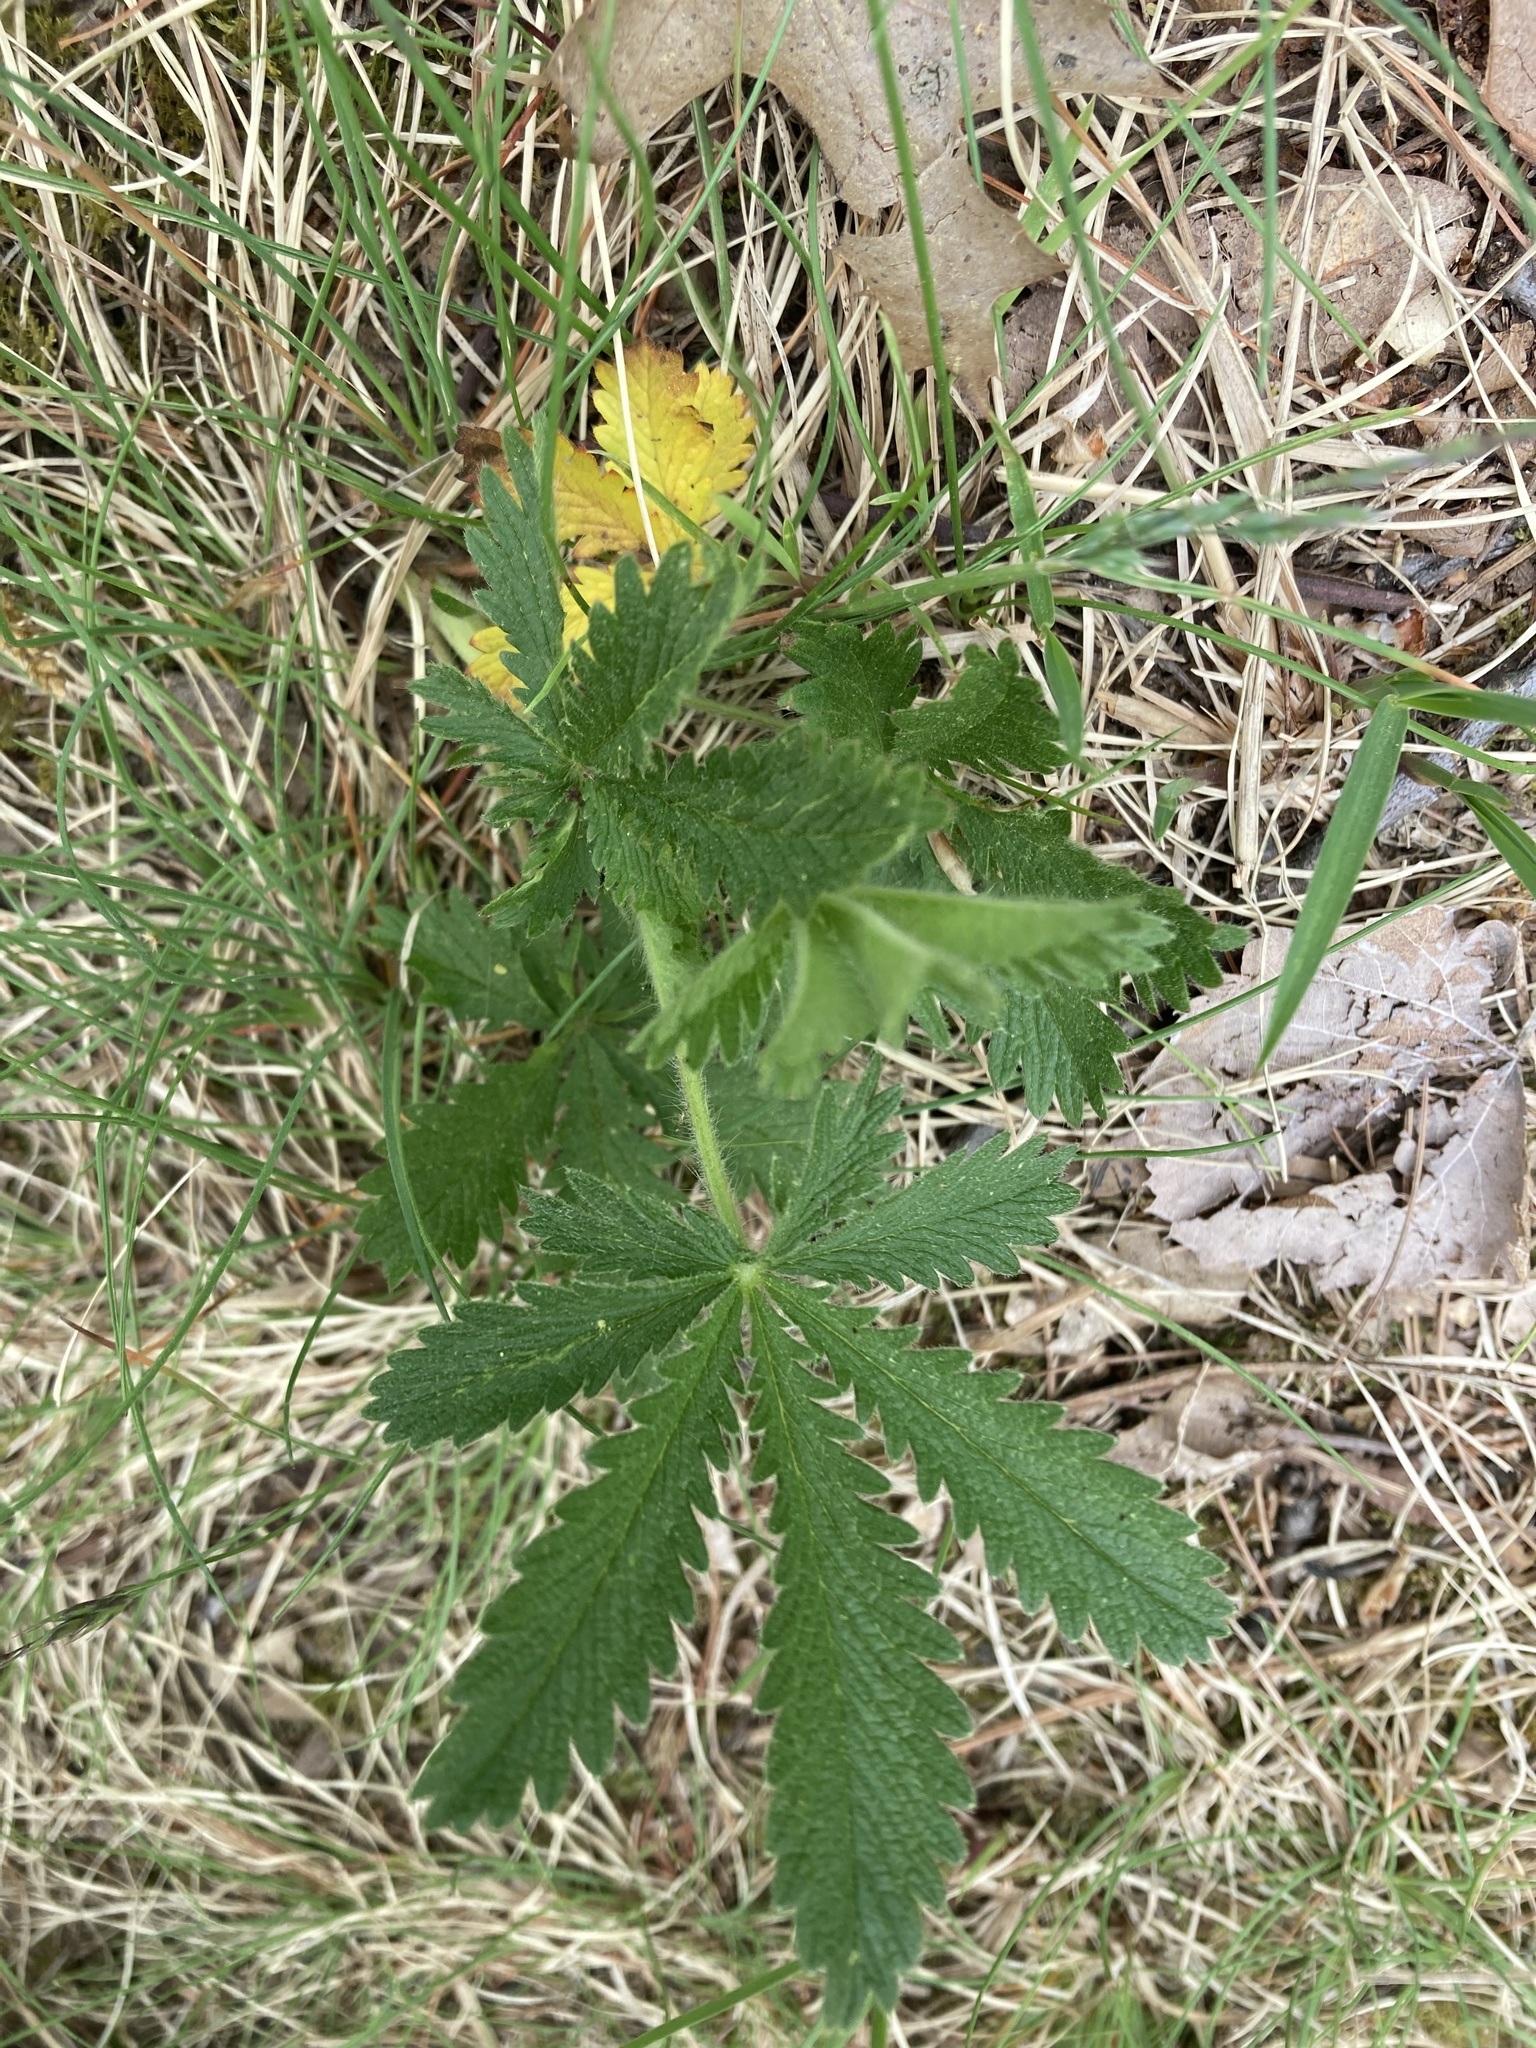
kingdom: Plantae
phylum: Tracheophyta
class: Magnoliopsida
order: Rosales
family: Rosaceae
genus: Potentilla
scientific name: Potentilla recta
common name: Sulphur cinquefoil
